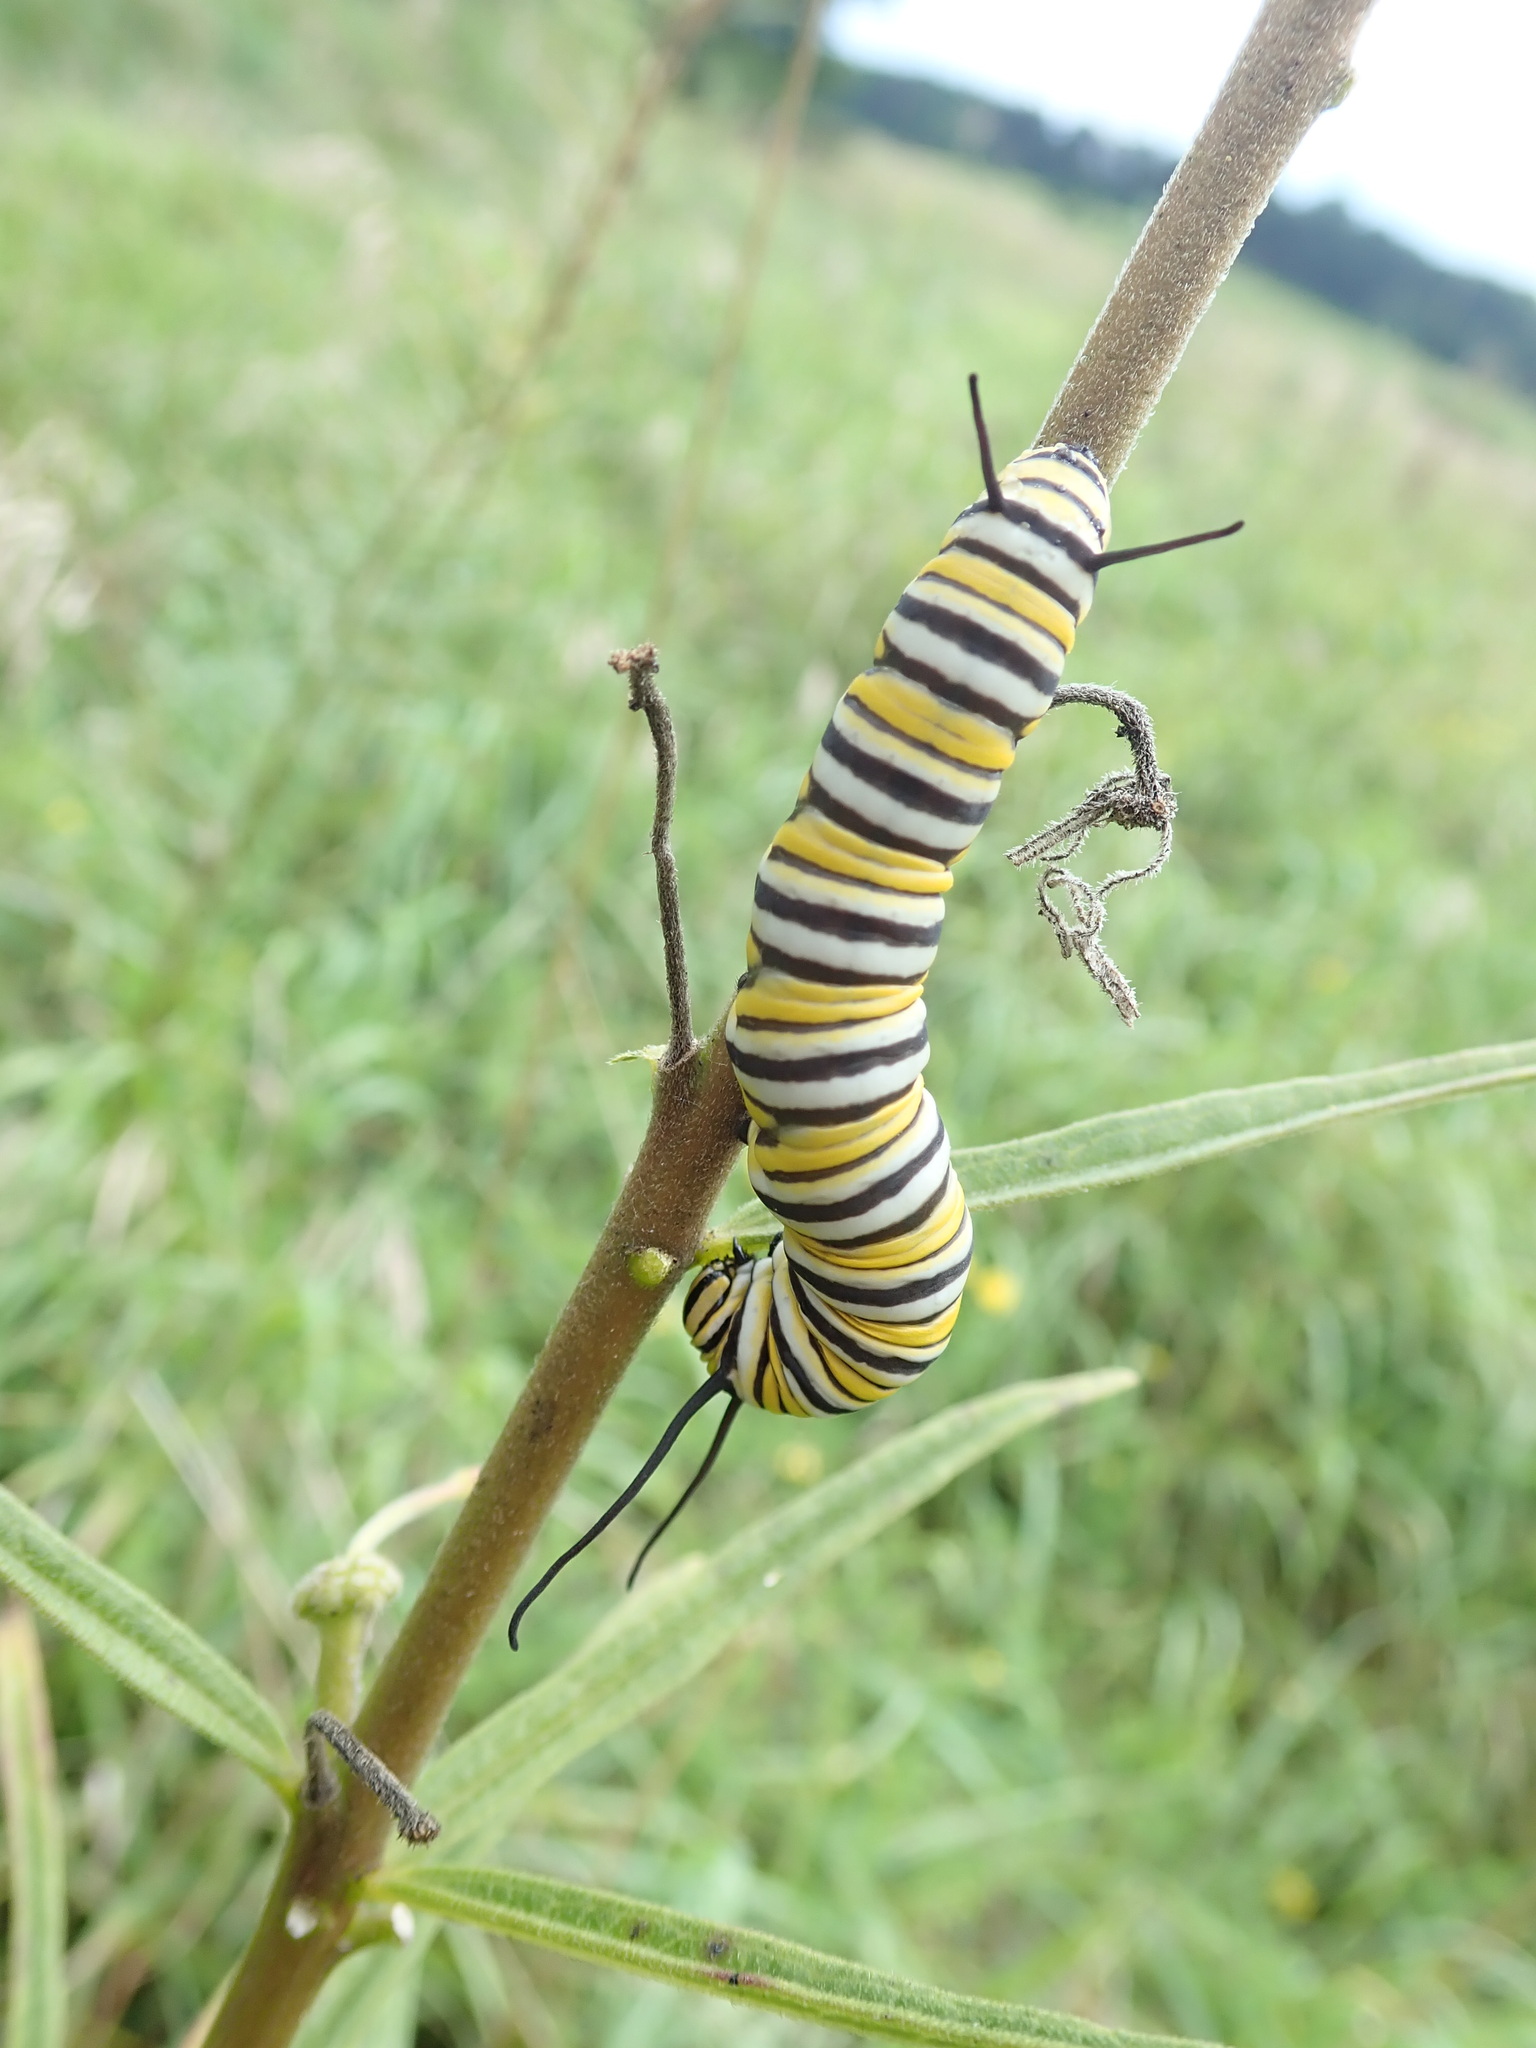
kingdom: Animalia
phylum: Arthropoda
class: Insecta
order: Lepidoptera
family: Nymphalidae
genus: Danaus
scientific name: Danaus plexippus
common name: Monarch
